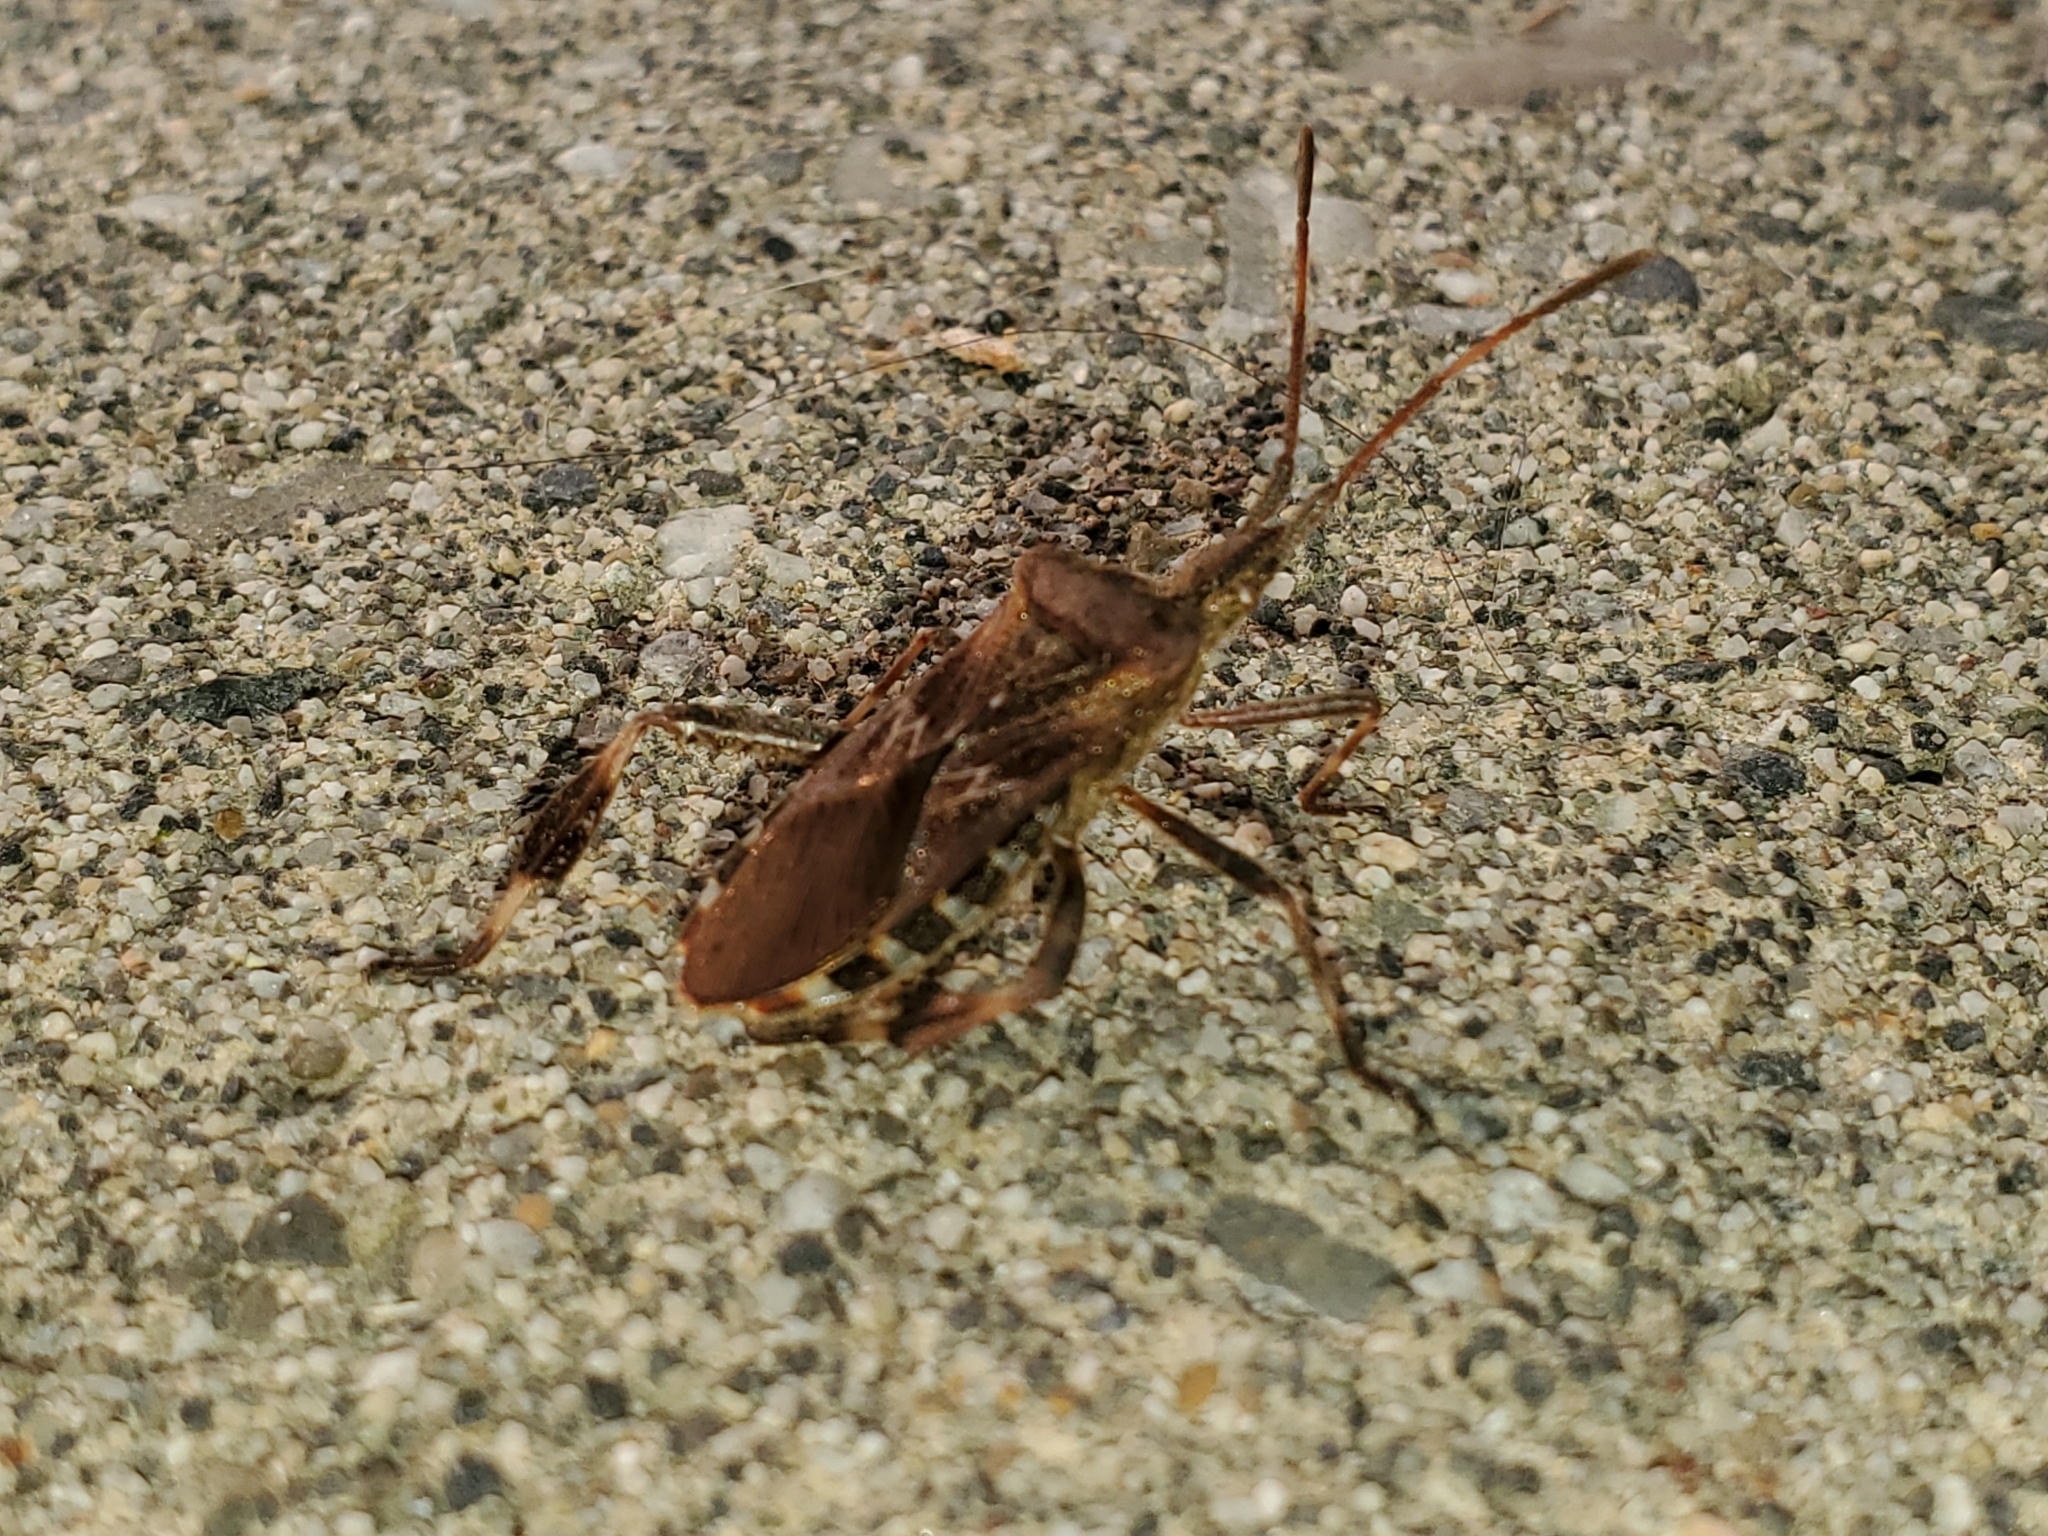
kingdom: Animalia
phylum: Arthropoda
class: Insecta
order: Hemiptera
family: Coreidae
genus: Leptoglossus
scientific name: Leptoglossus occidentalis
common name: Western conifer-seed bug
